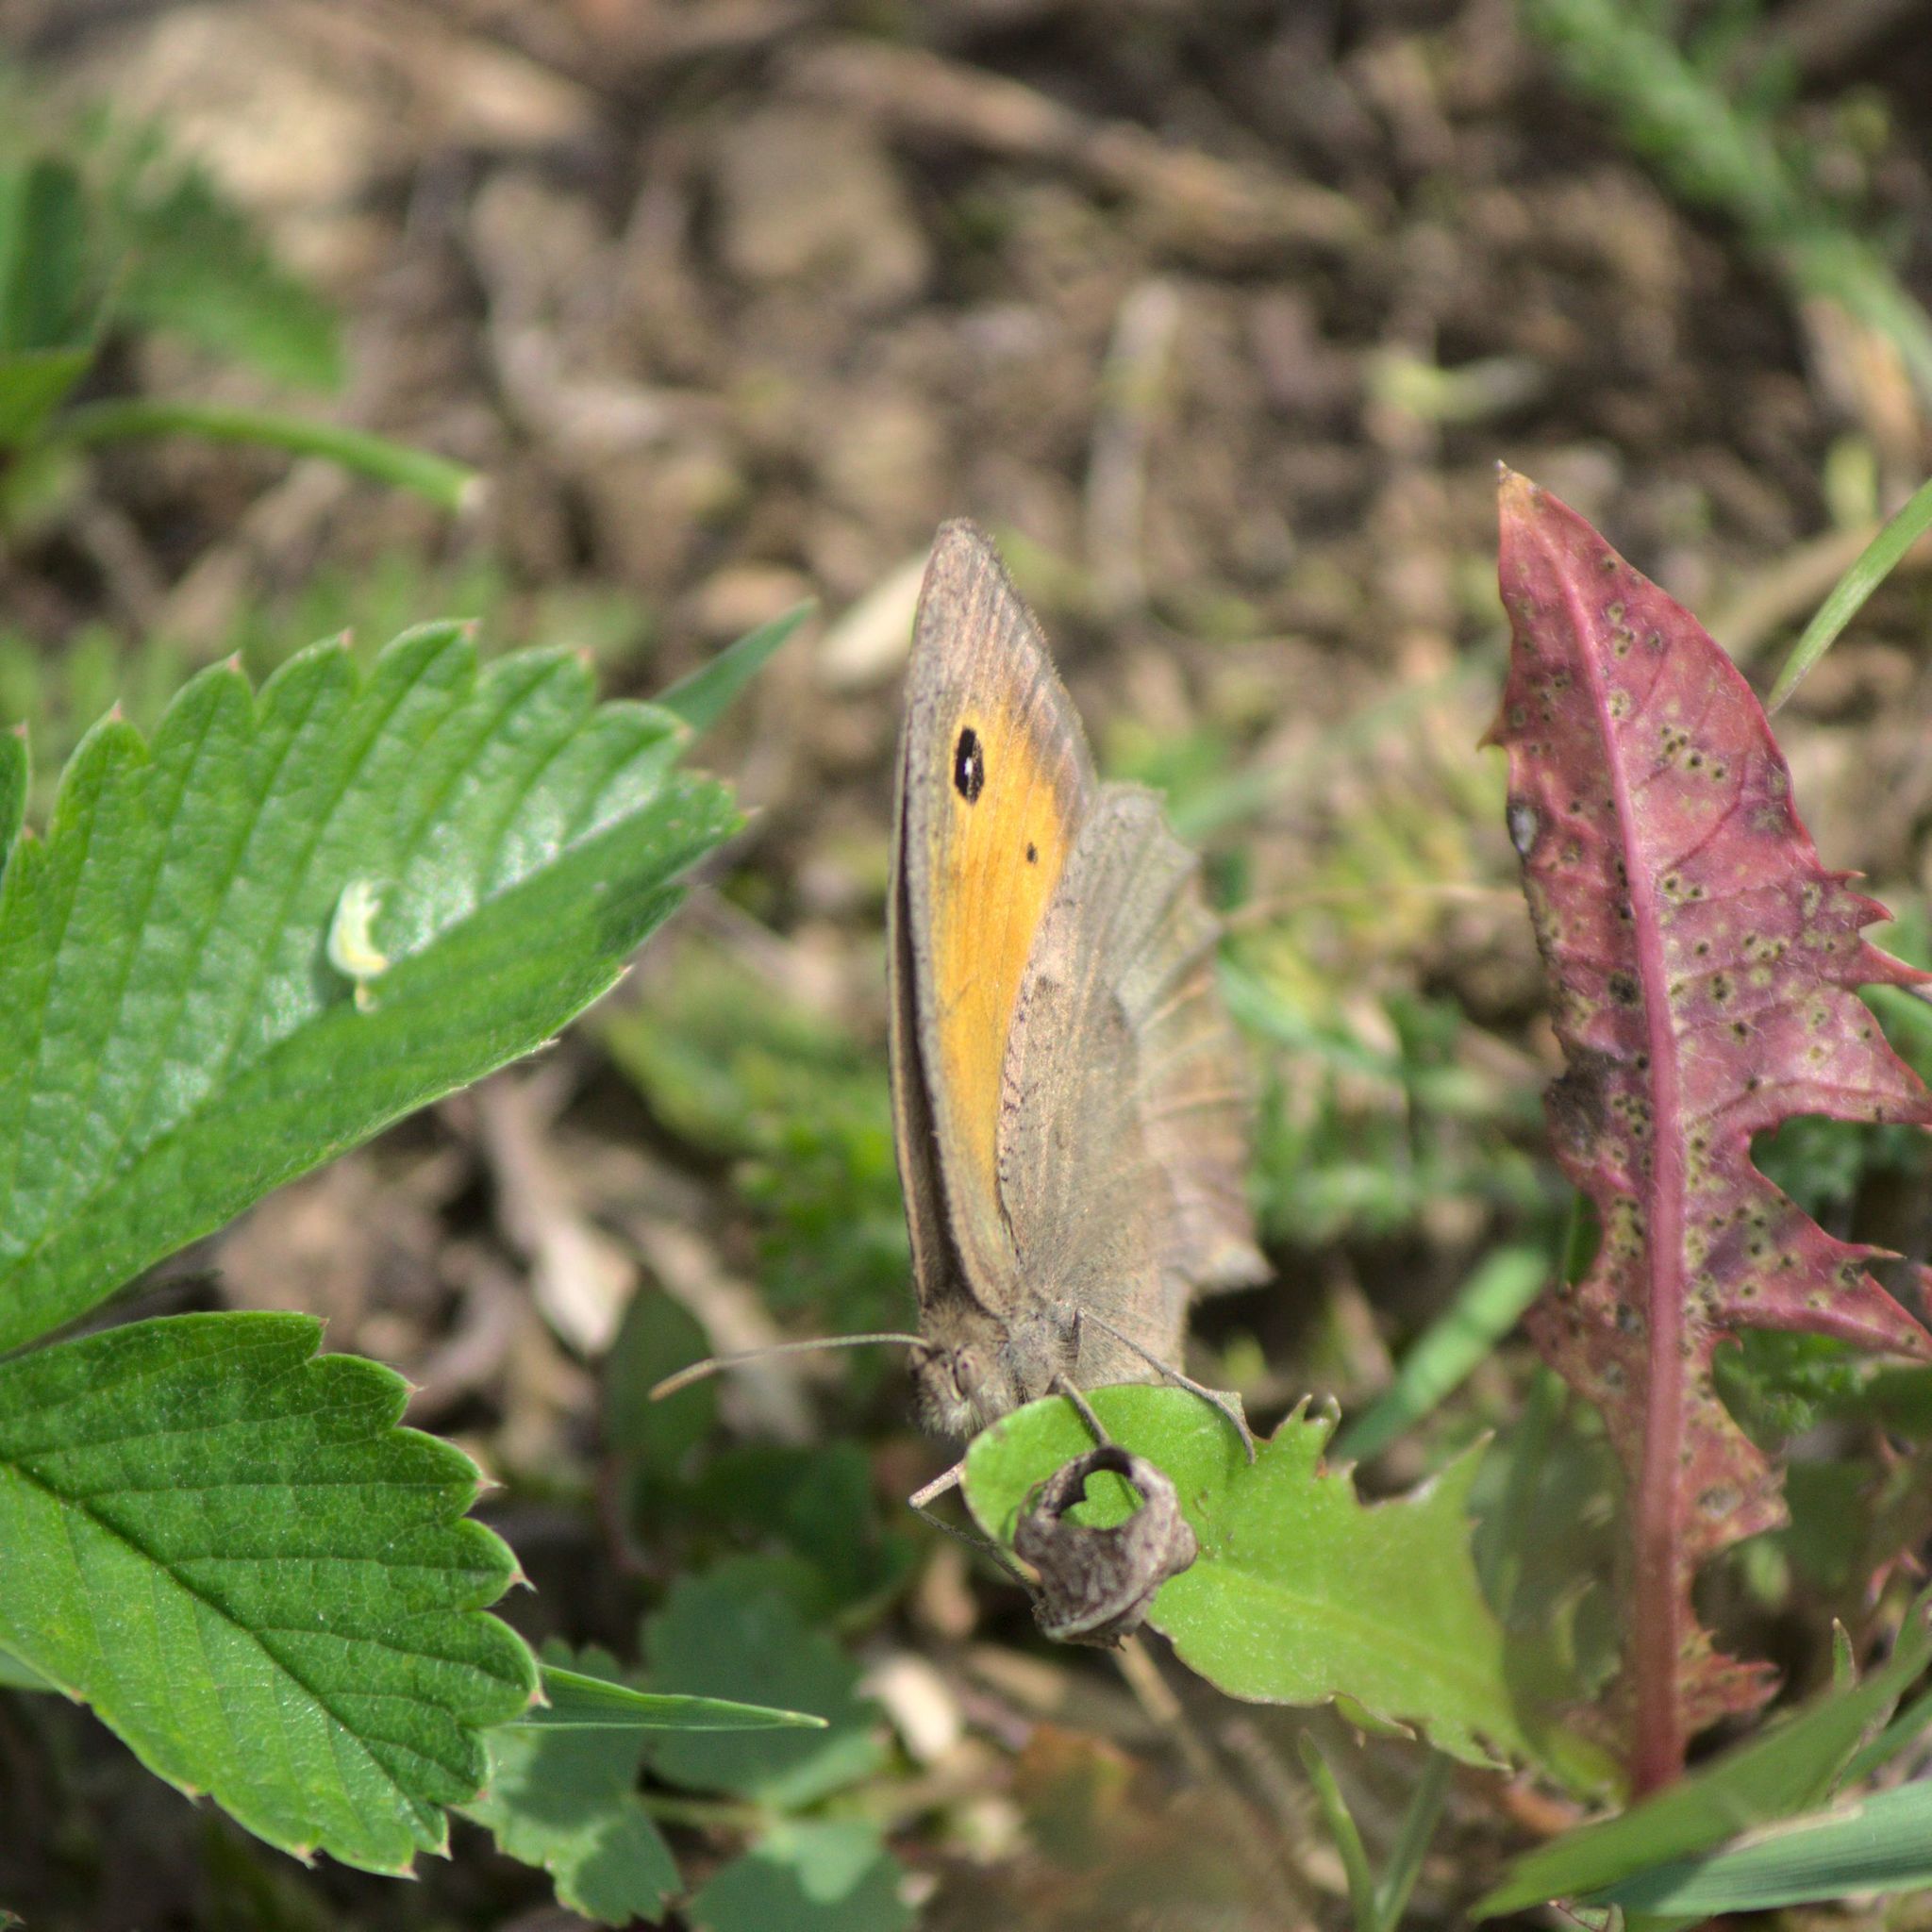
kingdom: Animalia
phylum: Arthropoda
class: Insecta
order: Lepidoptera
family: Nymphalidae
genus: Hyponephele
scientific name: Hyponephele lycaon
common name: Dusky meadow brown
